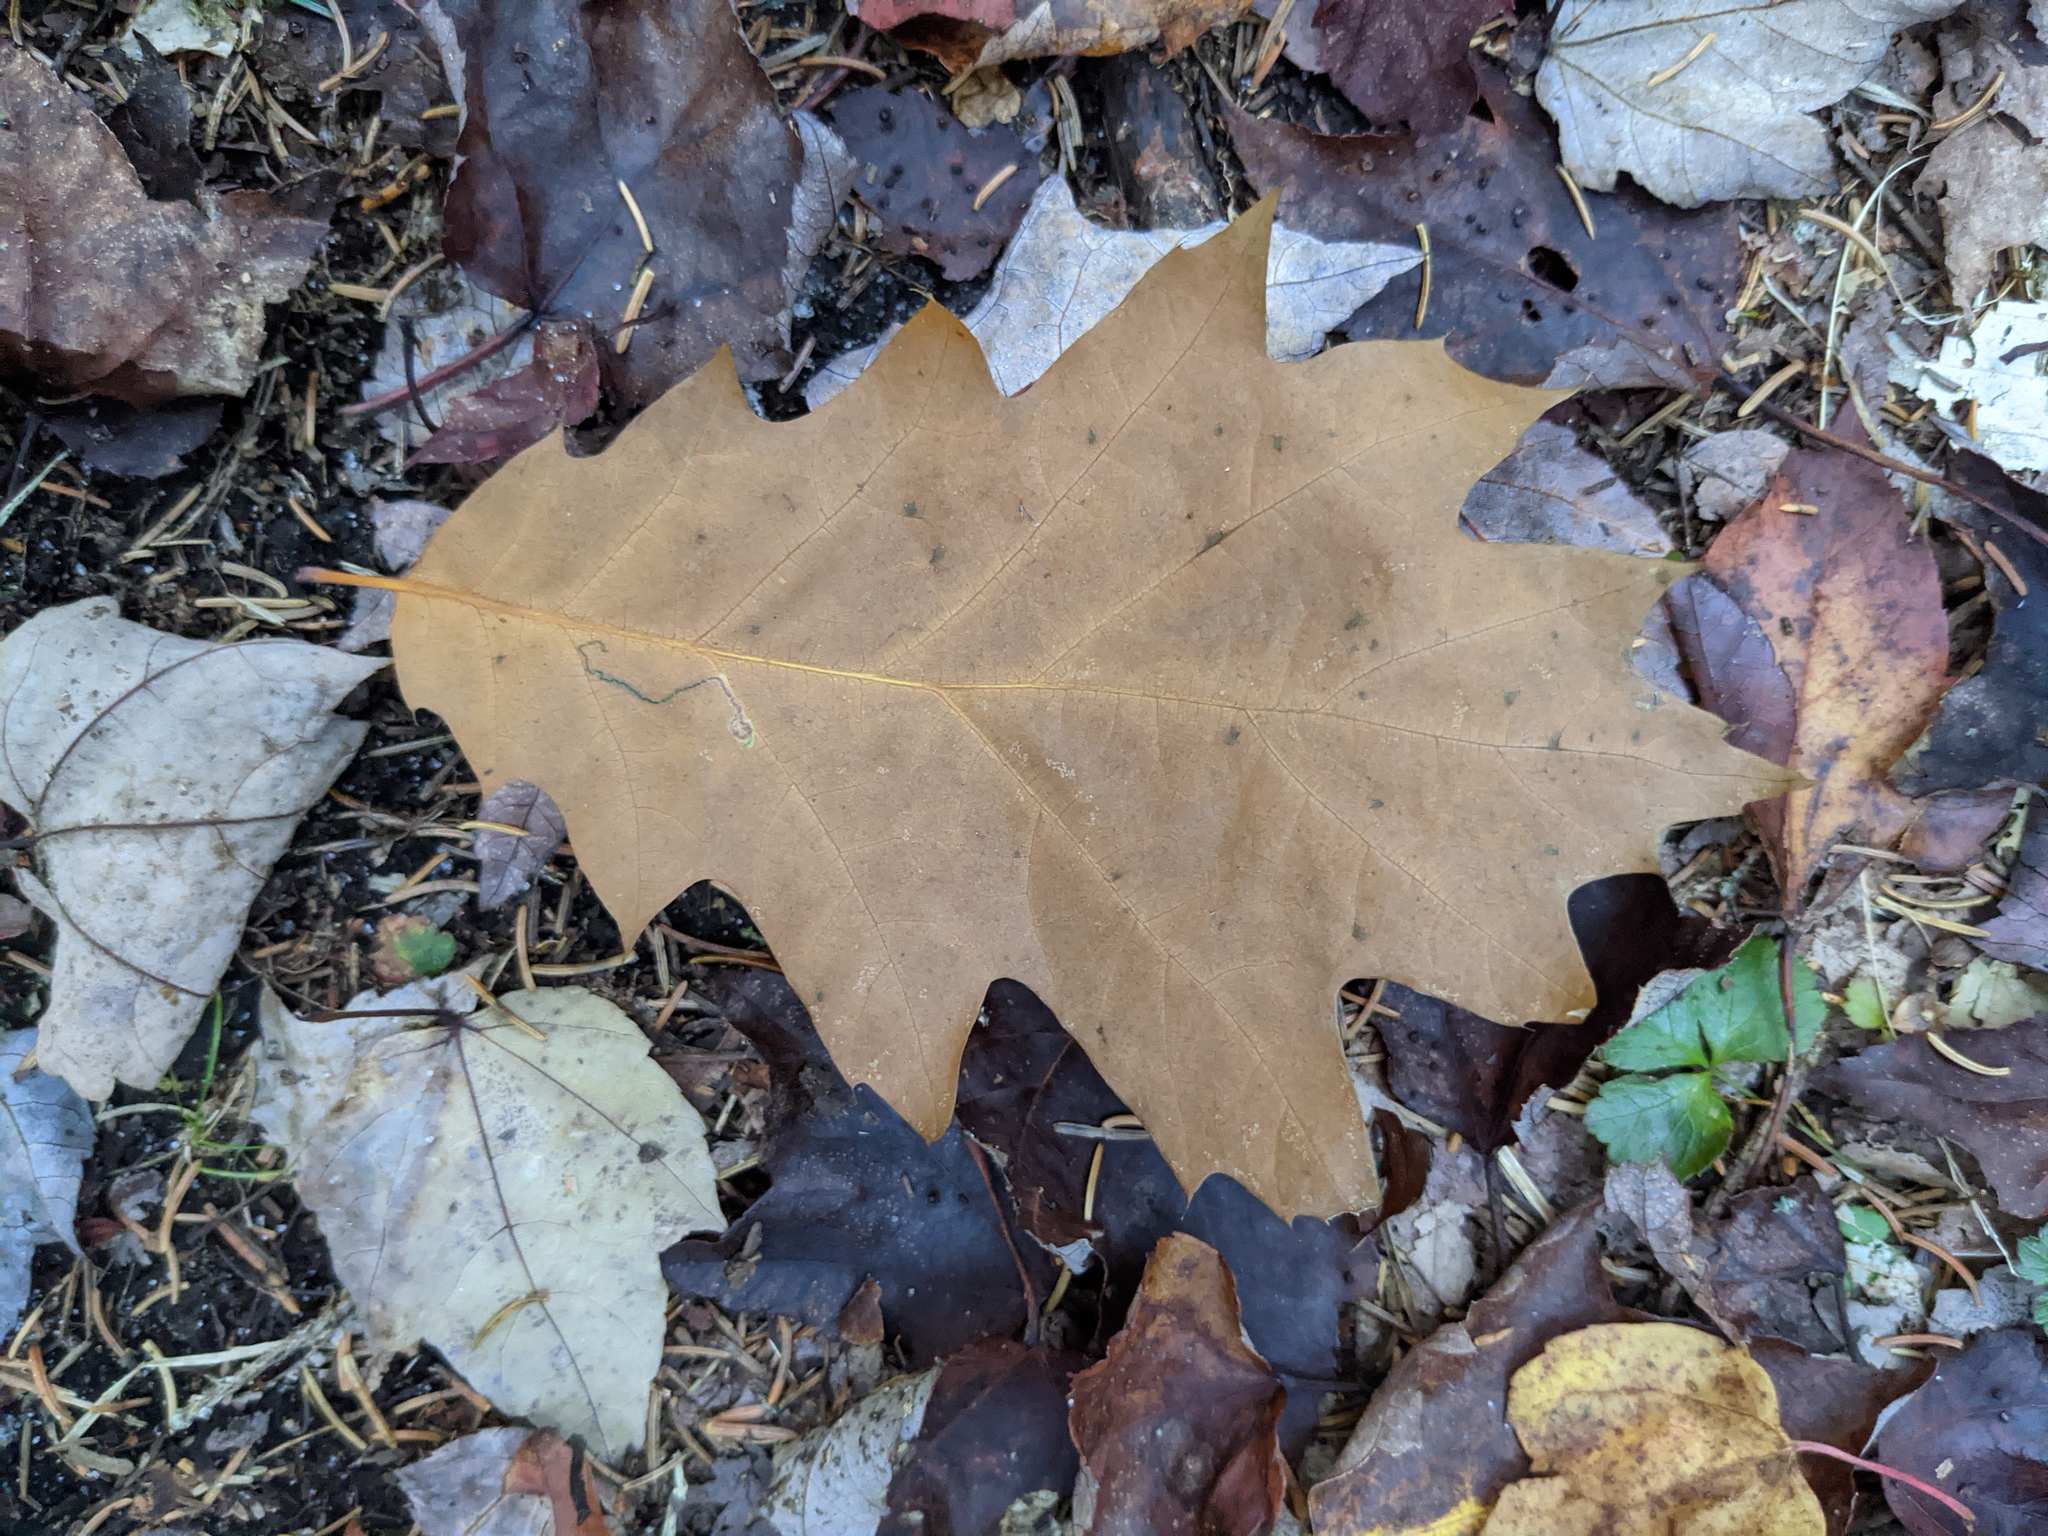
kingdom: Plantae
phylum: Tracheophyta
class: Magnoliopsida
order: Fagales
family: Fagaceae
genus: Quercus
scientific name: Quercus rubra
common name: Red oak
